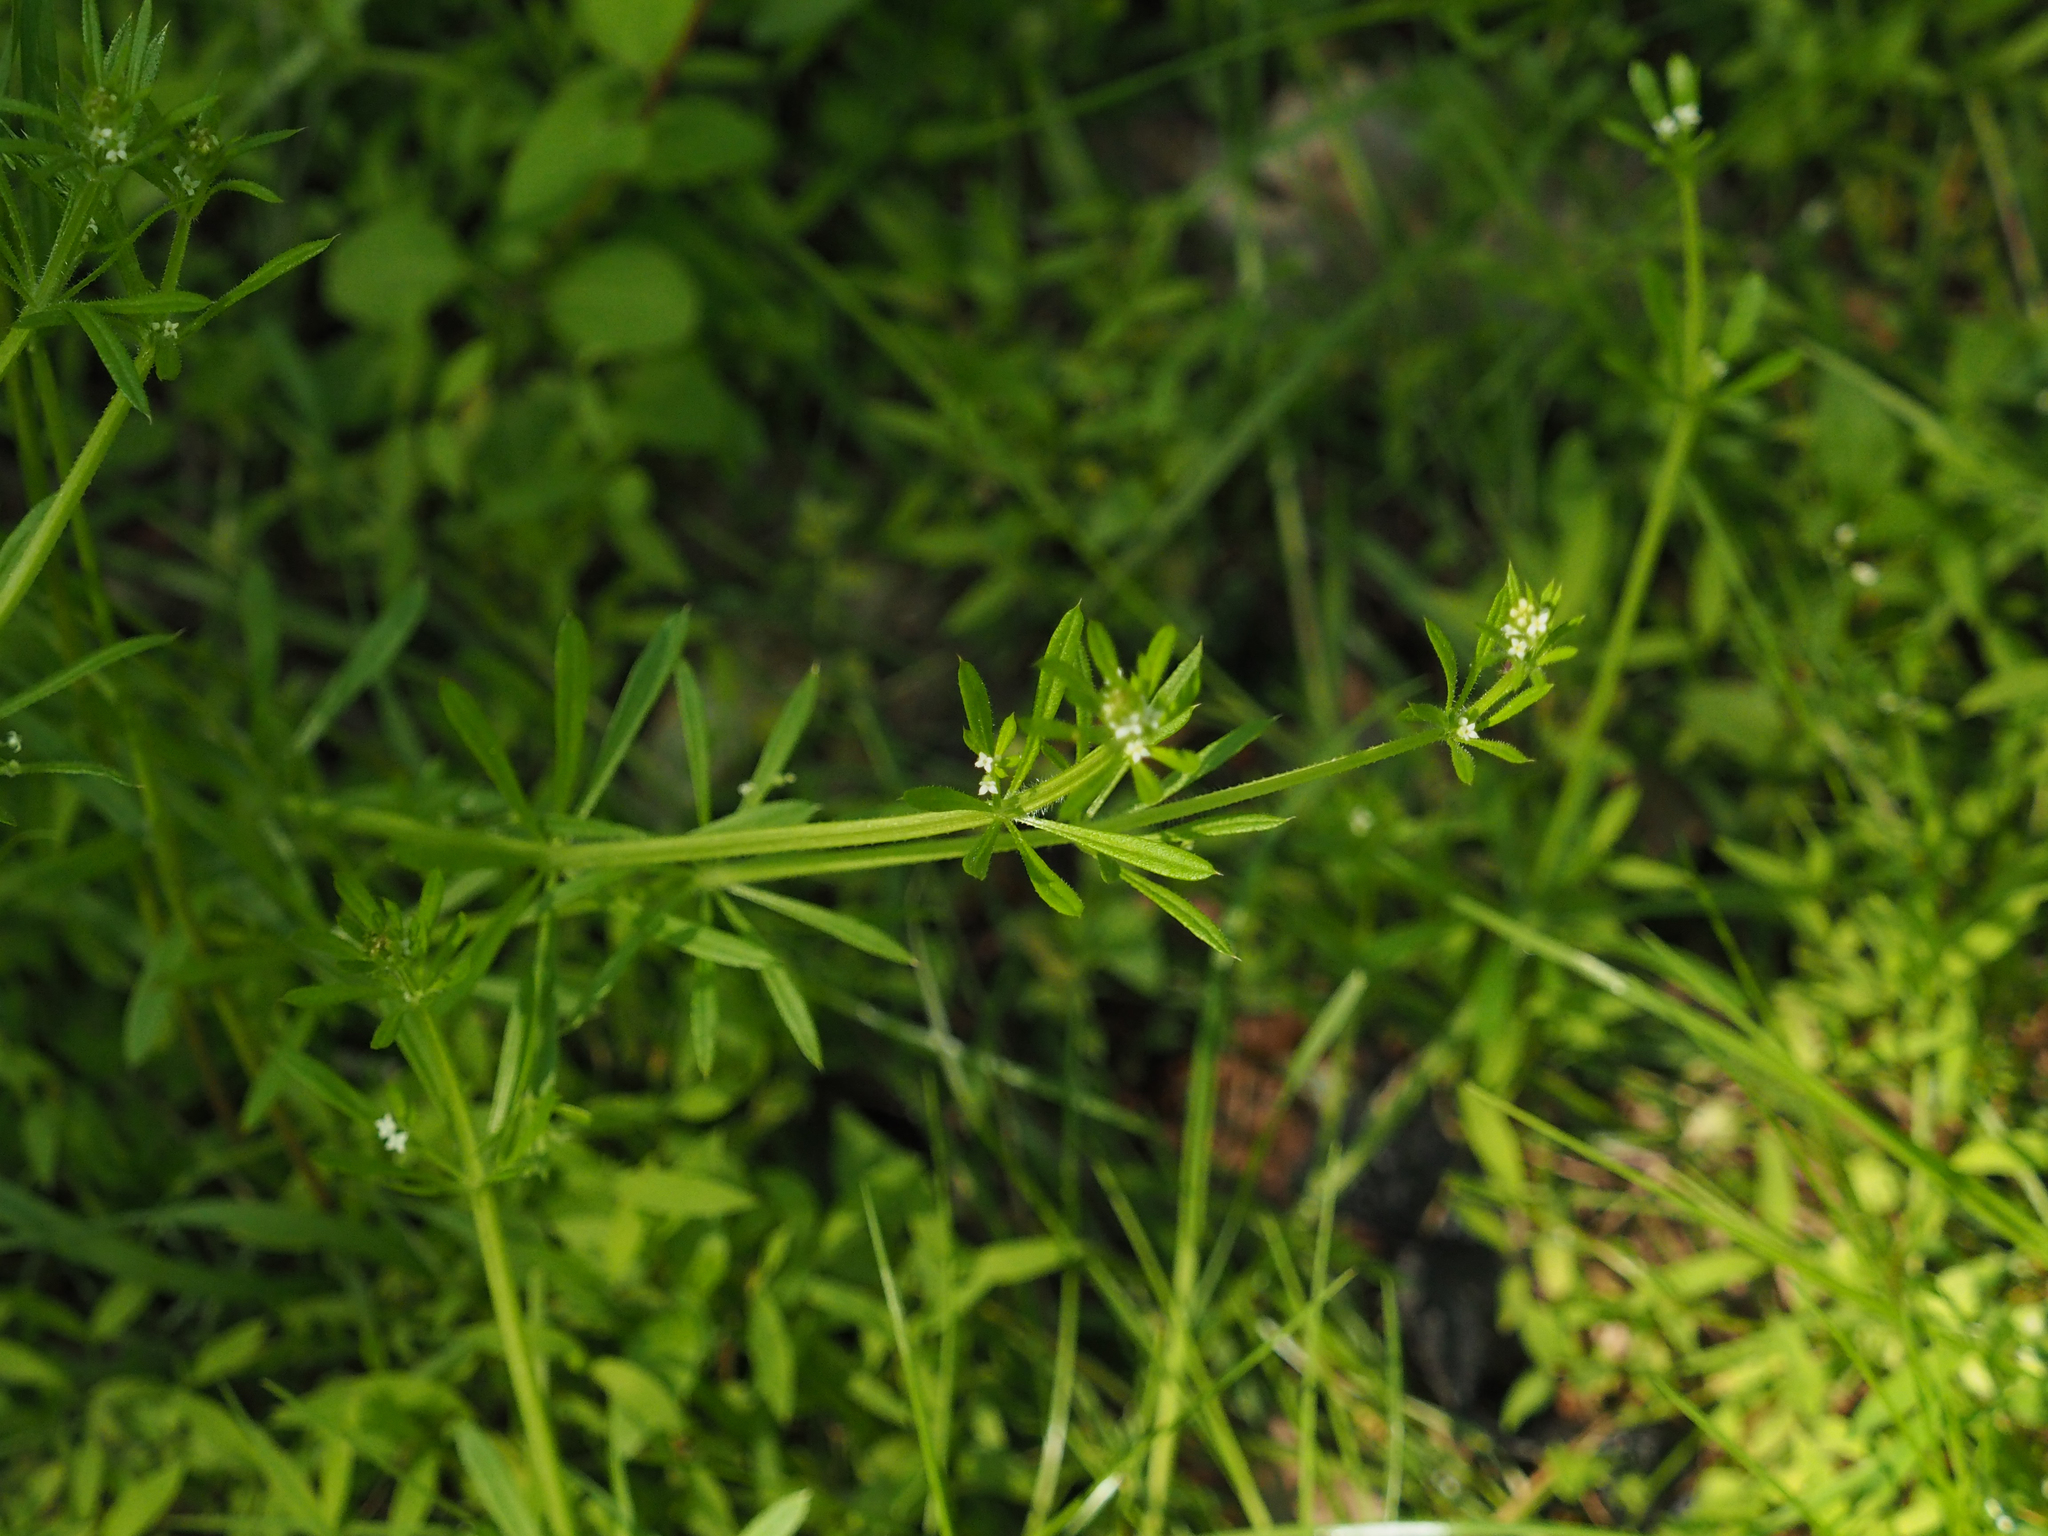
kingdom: Plantae
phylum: Tracheophyta
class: Magnoliopsida
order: Gentianales
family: Rubiaceae
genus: Galium
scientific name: Galium aparine
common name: Cleavers
